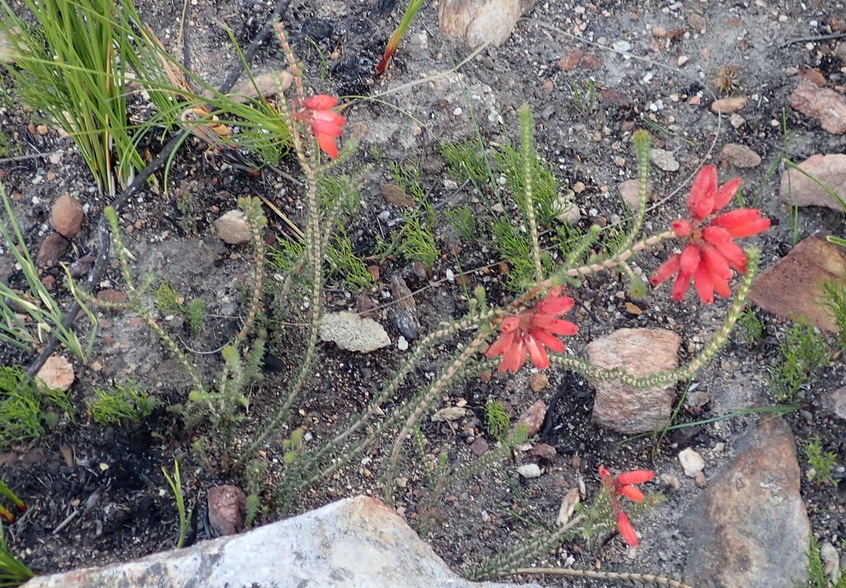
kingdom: Plantae
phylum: Tracheophyta
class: Magnoliopsida
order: Ericales
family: Ericaceae
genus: Erica
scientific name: Erica cerinthoides
